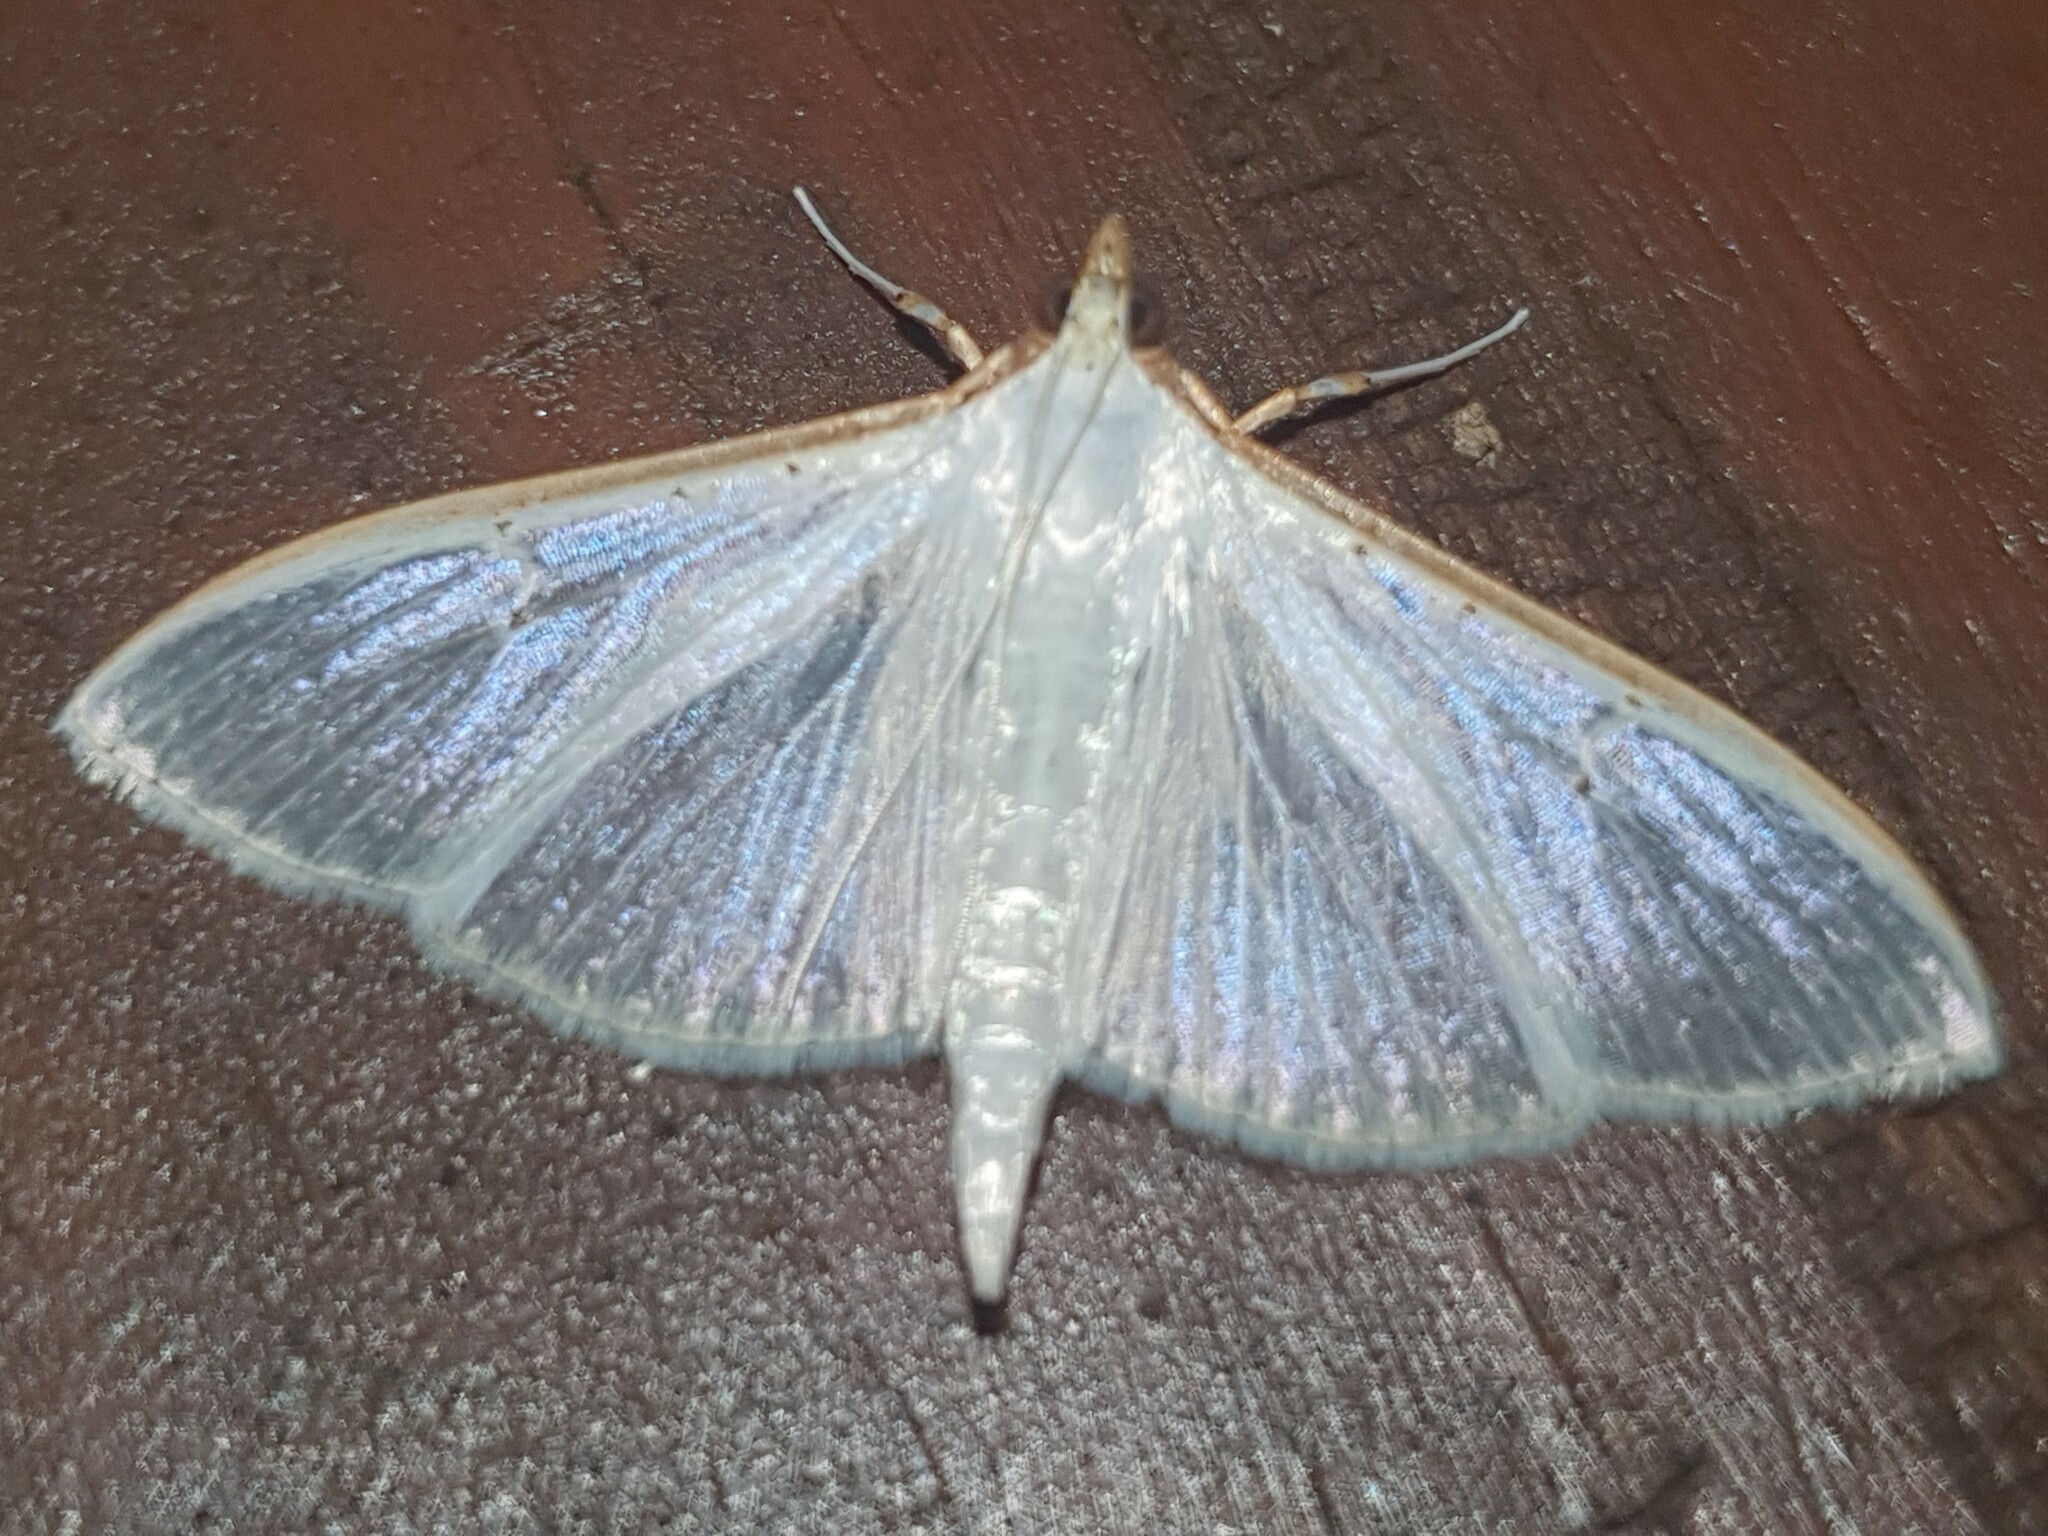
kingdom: Animalia
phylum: Arthropoda
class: Insecta
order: Lepidoptera
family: Crambidae
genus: Palpita
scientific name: Palpita vitrealis
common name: Olive-tree pearl
